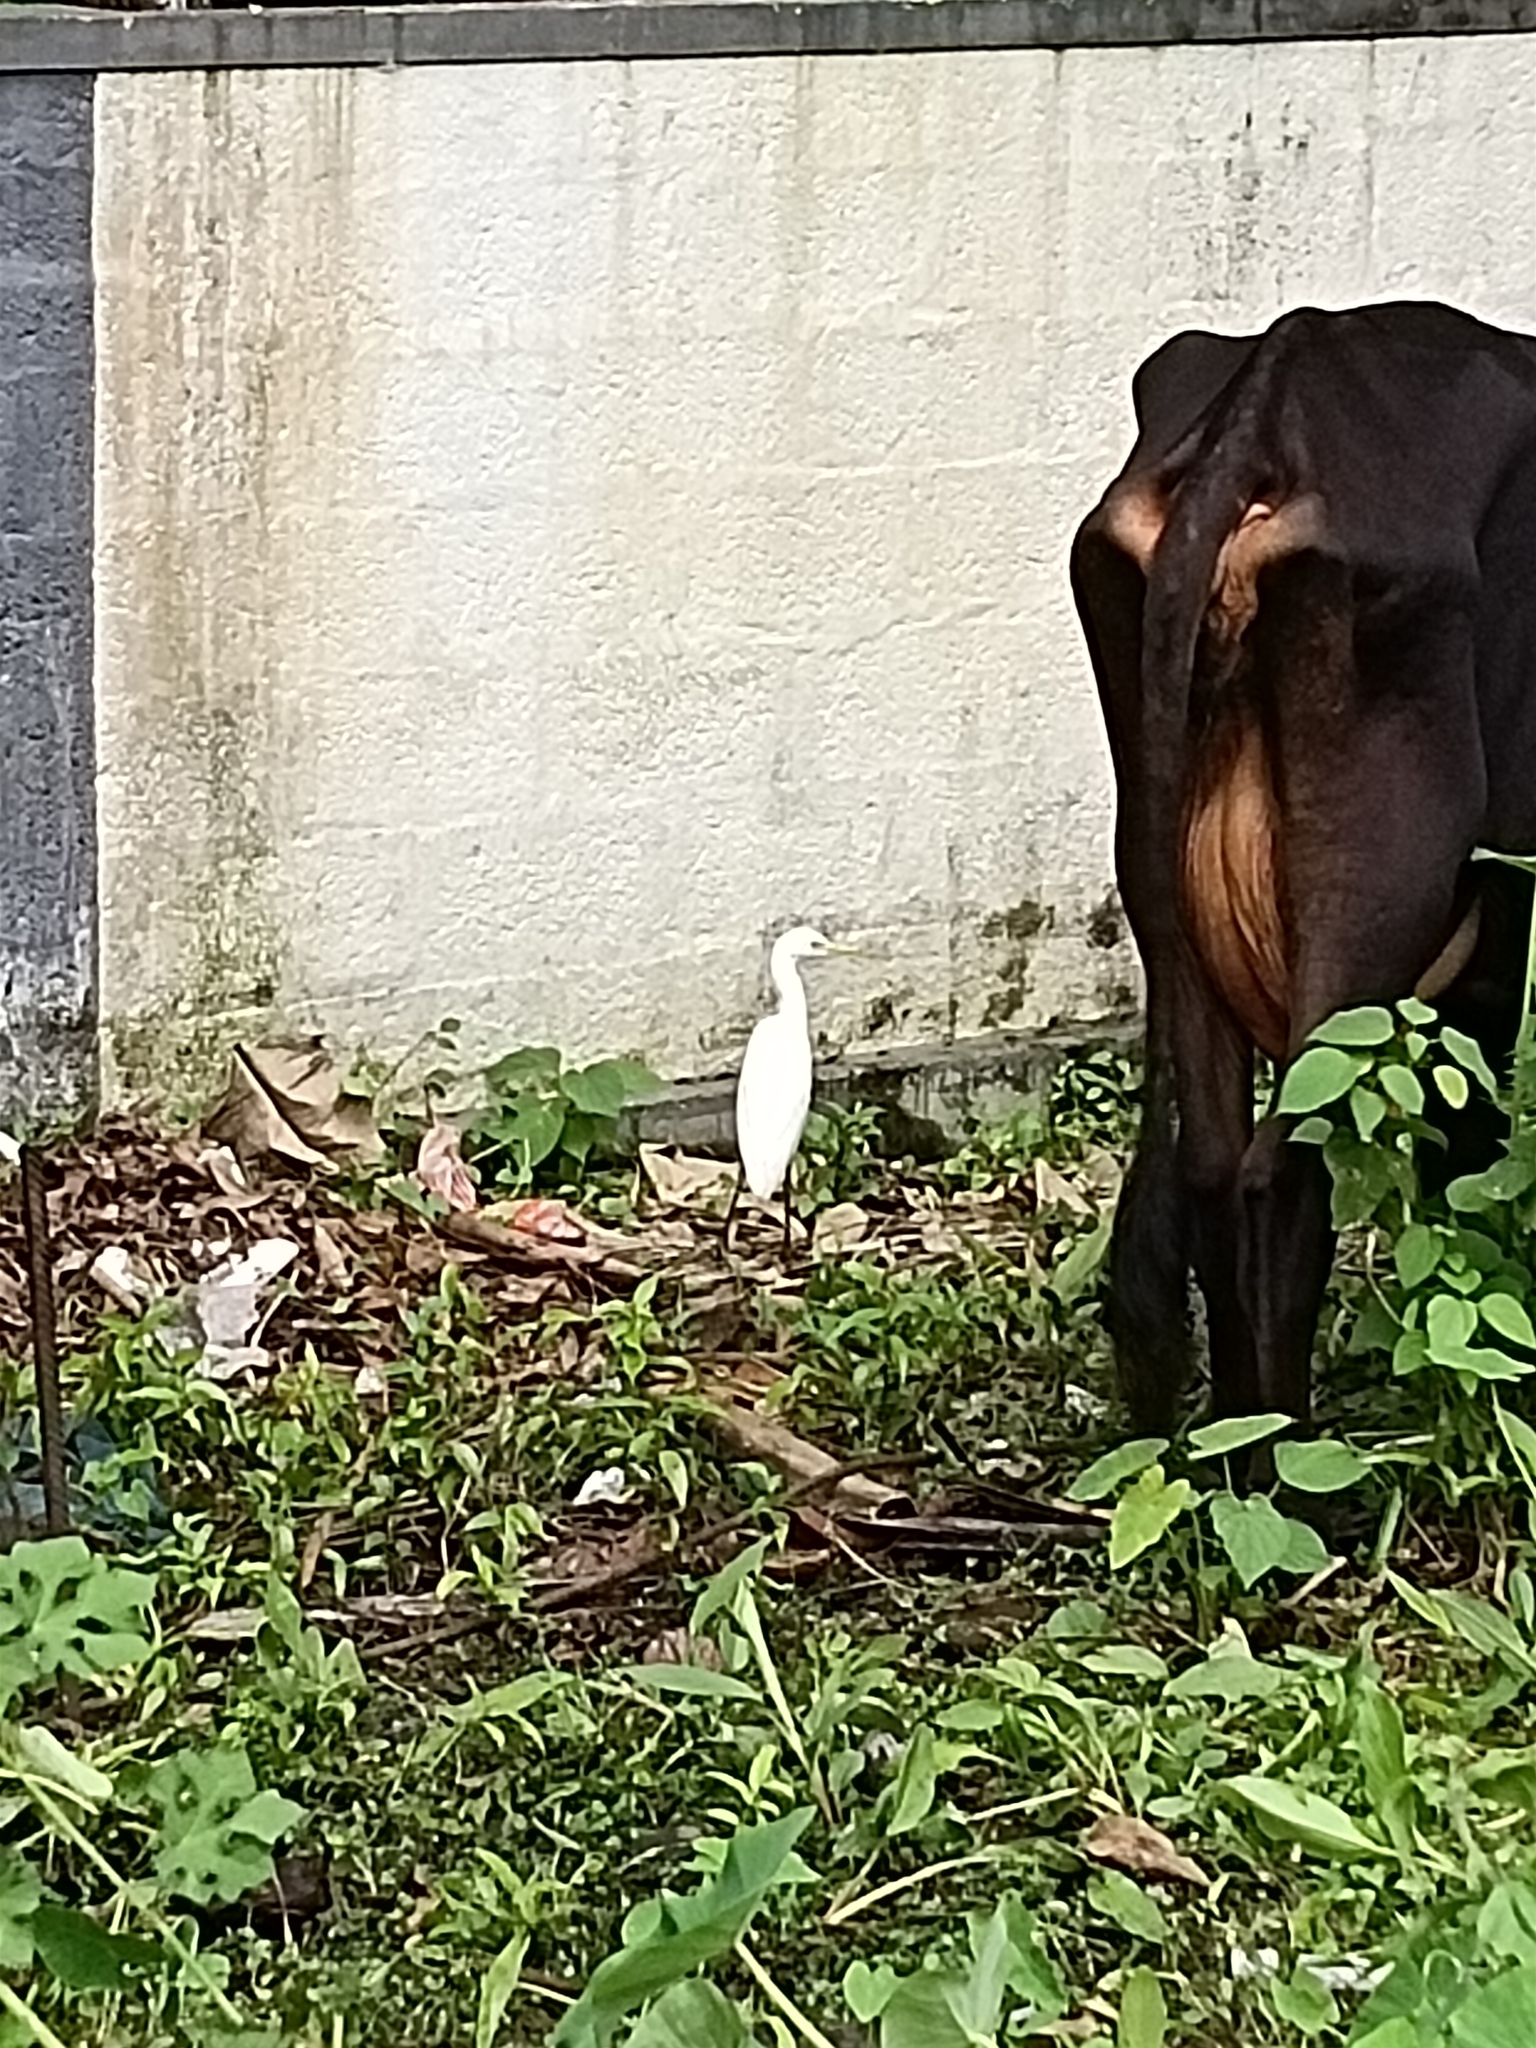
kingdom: Animalia
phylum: Chordata
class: Aves
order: Pelecaniformes
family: Ardeidae
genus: Bubulcus
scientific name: Bubulcus coromandus
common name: Eastern cattle egret
